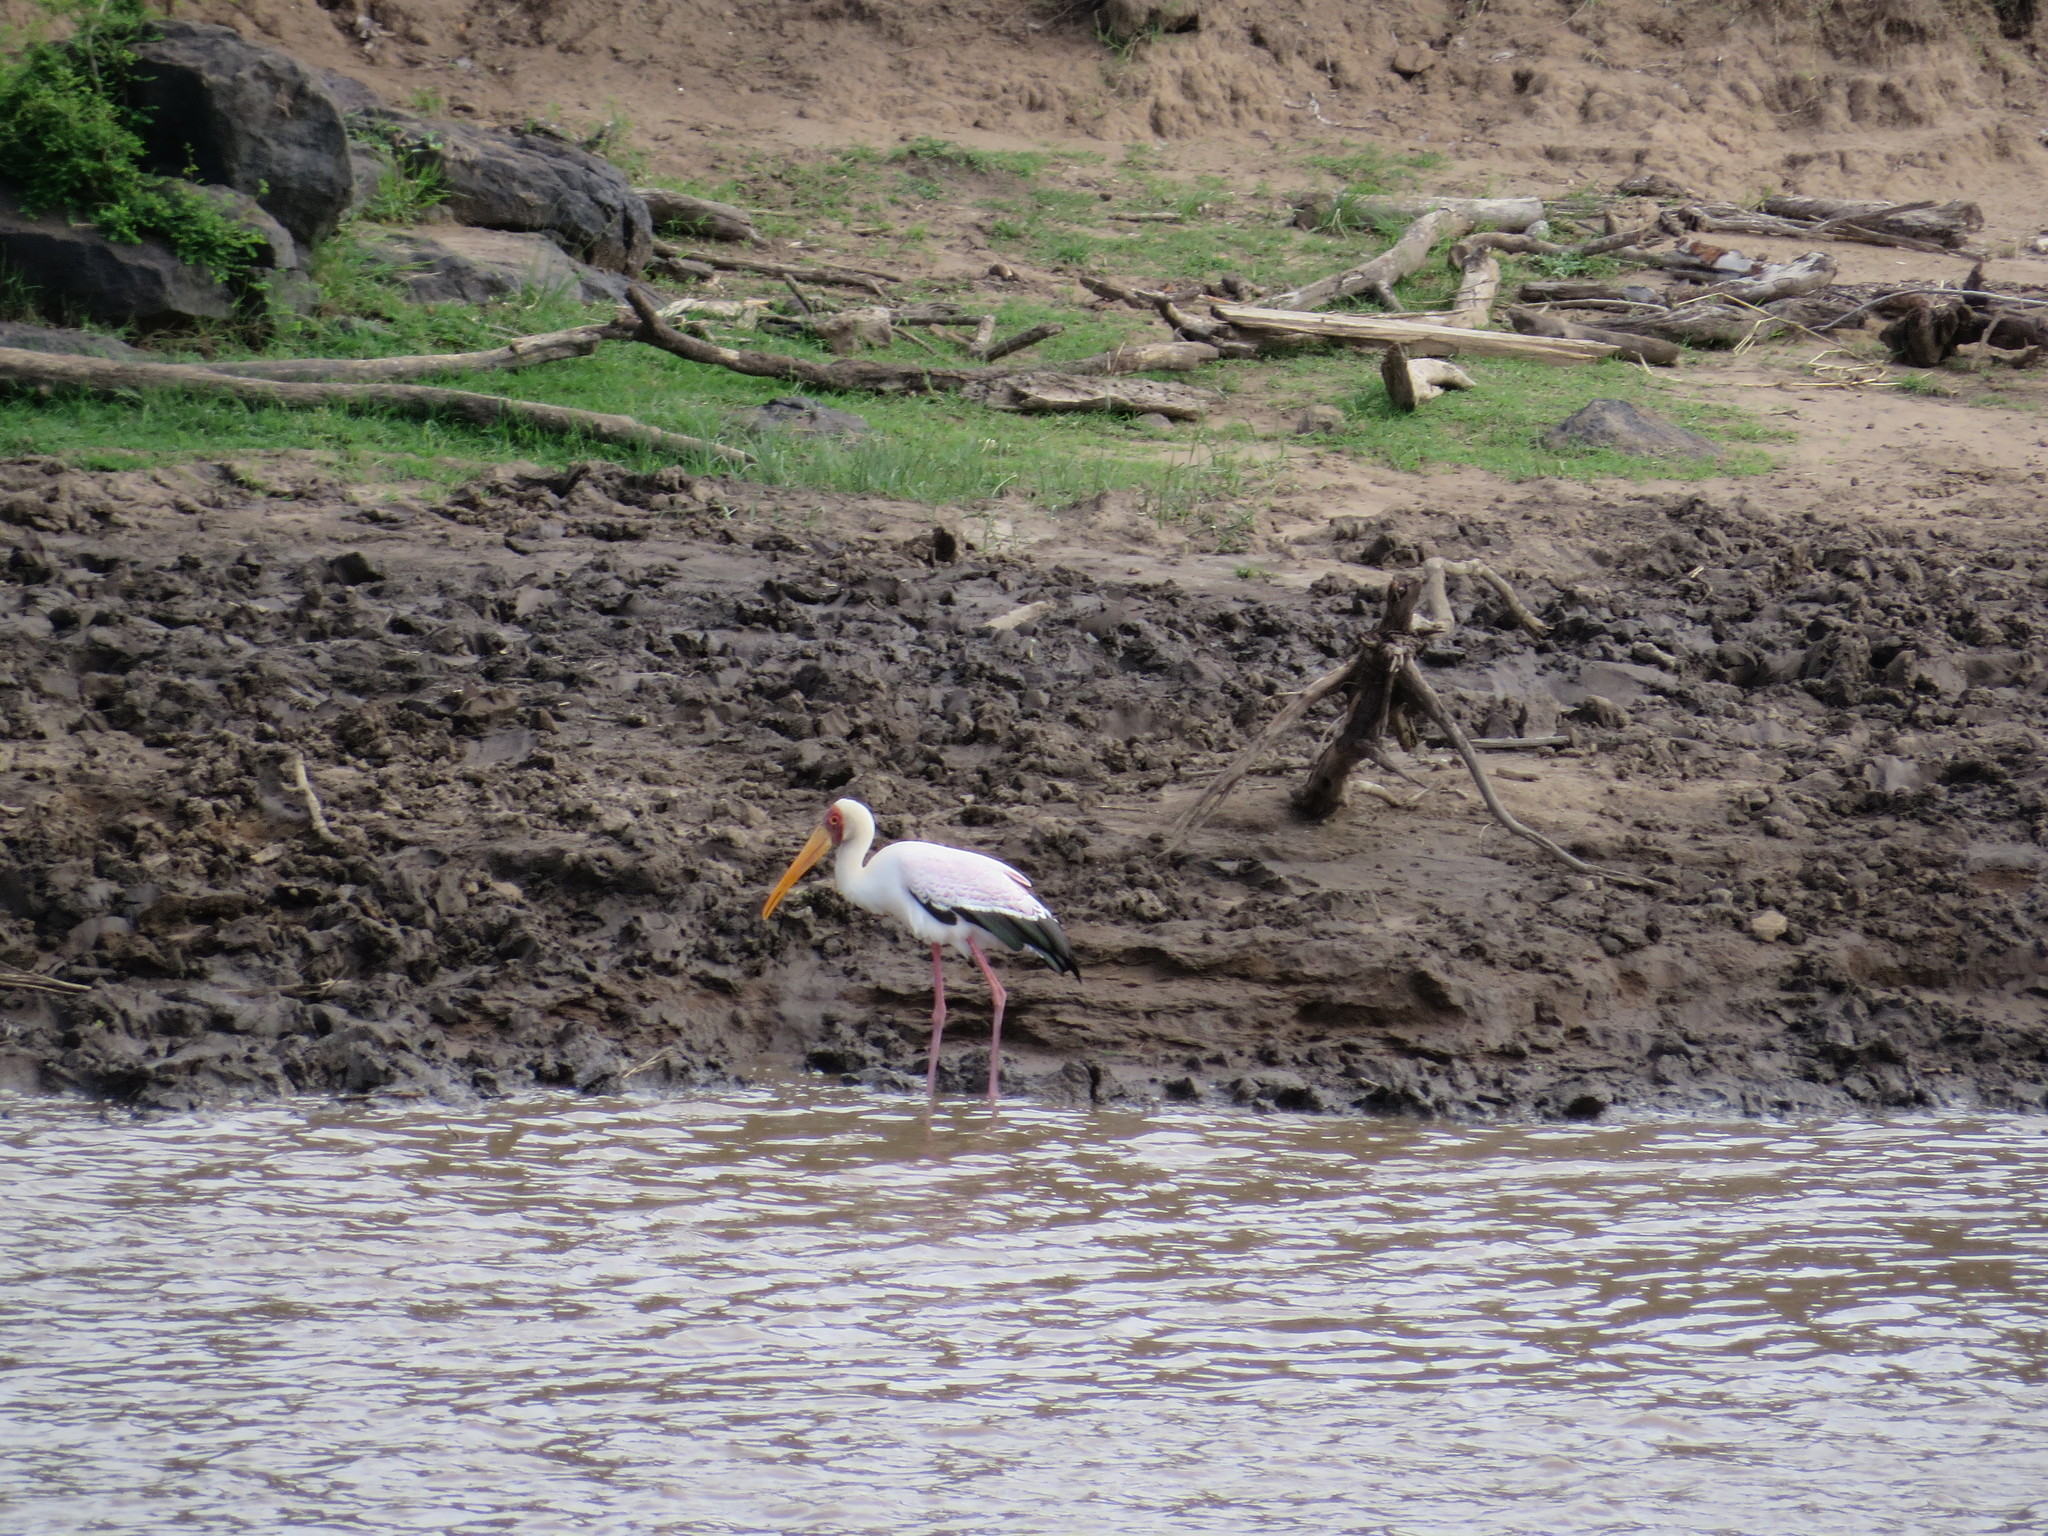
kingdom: Animalia
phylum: Chordata
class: Aves
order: Ciconiiformes
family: Ciconiidae
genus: Mycteria
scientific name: Mycteria ibis
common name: Yellow-billed stork
